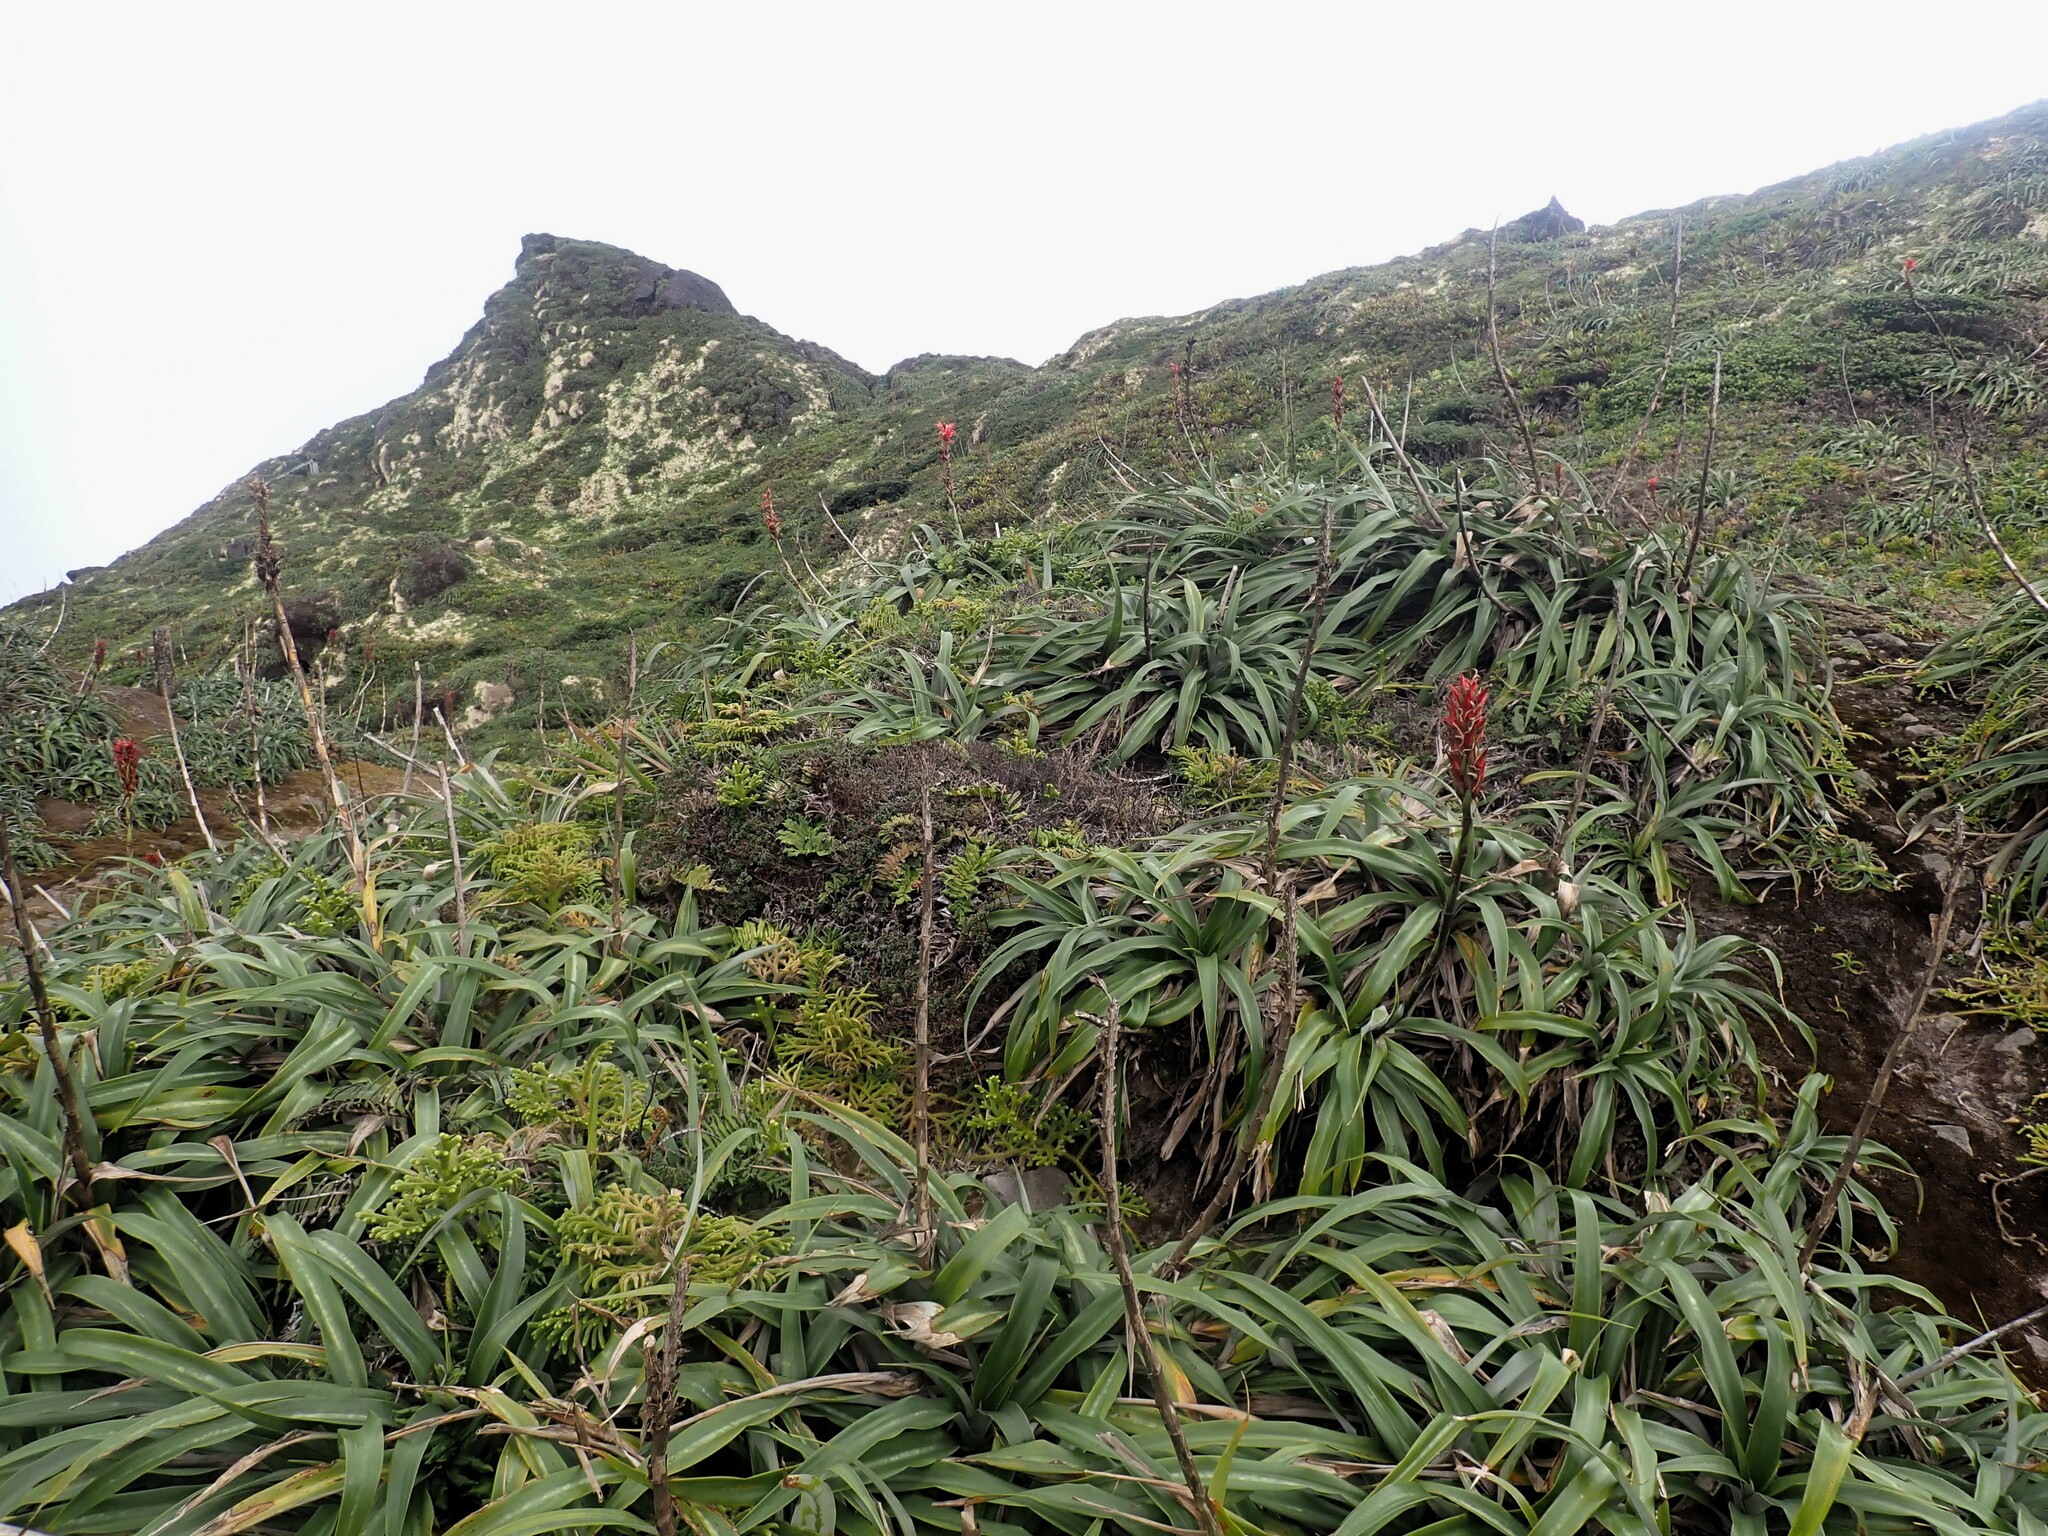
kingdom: Plantae
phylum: Tracheophyta
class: Liliopsida
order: Poales
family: Bromeliaceae
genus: Pitcairnia
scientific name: Pitcairnia bifrons
